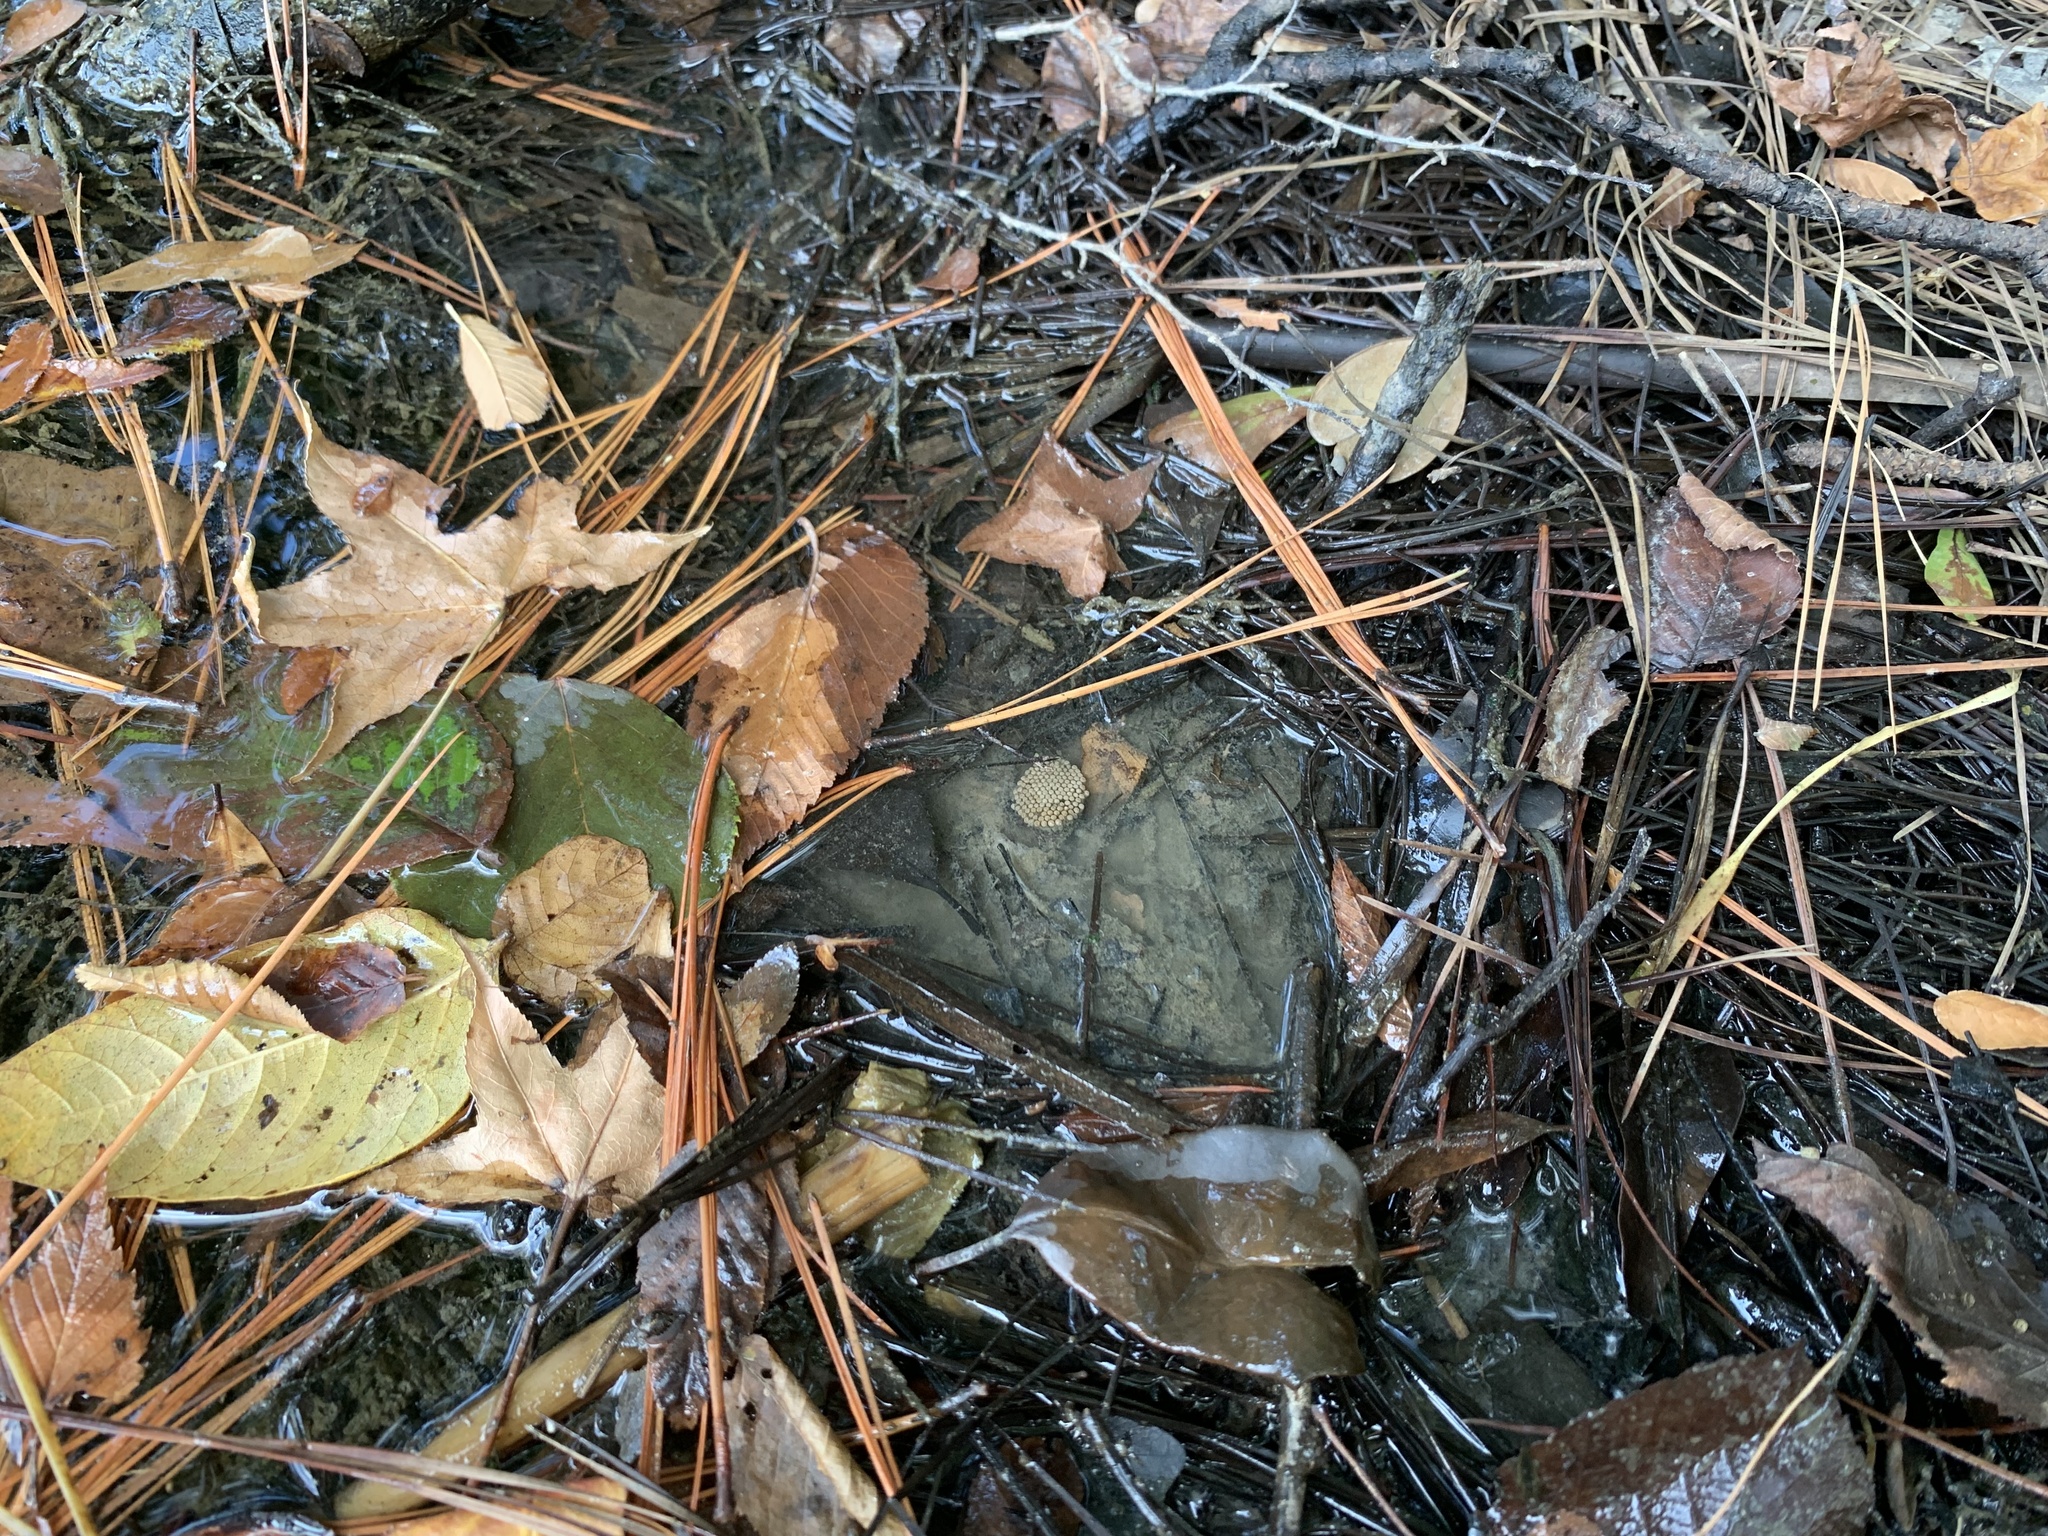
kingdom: Animalia
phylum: Arthropoda
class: Insecta
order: Hemiptera
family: Belostomatidae
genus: Belostoma
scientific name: Belostoma lutarium
